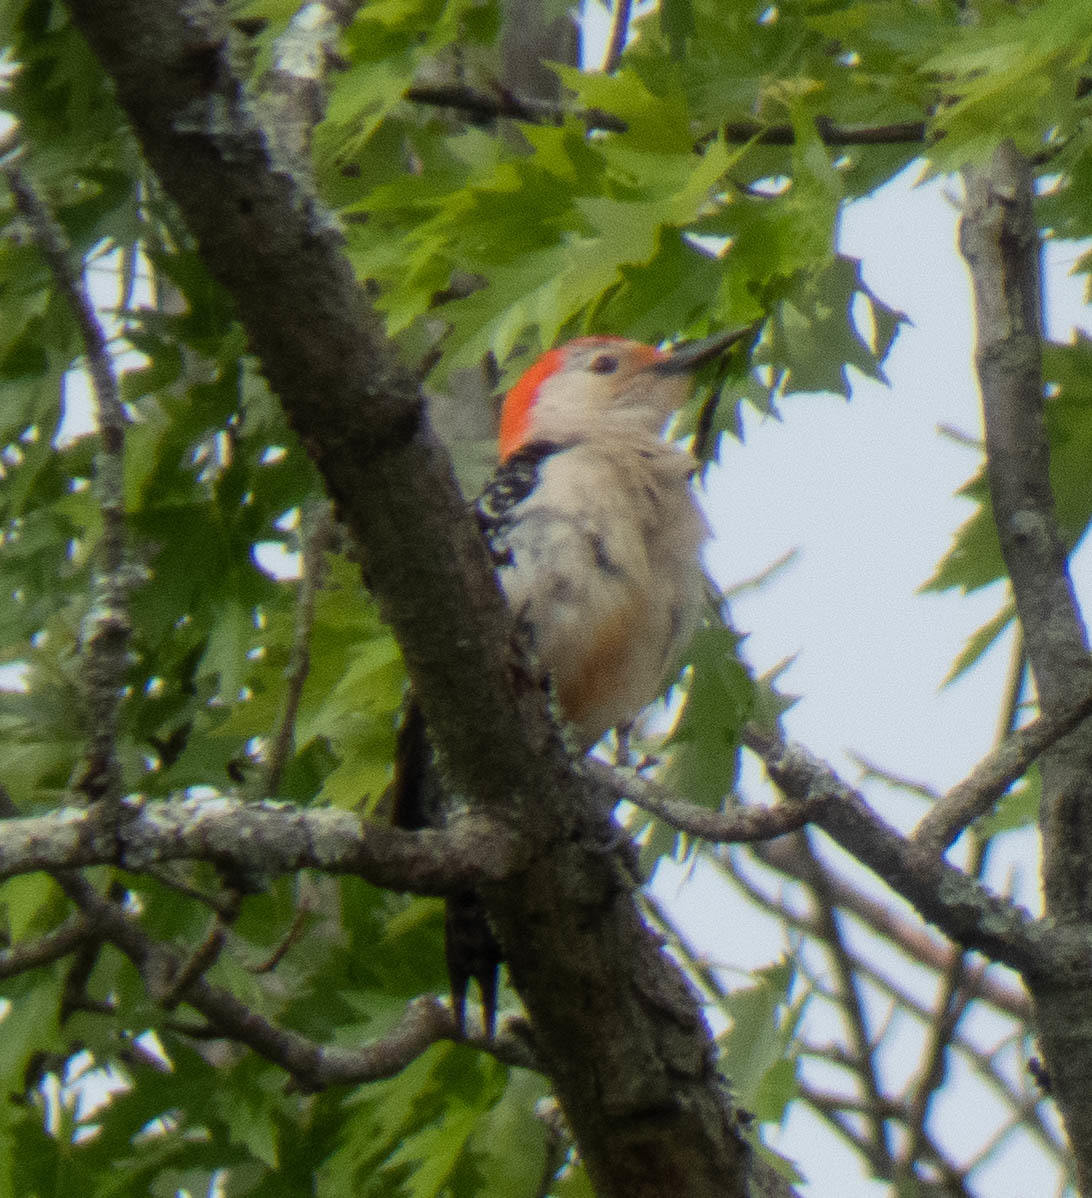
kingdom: Animalia
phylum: Chordata
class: Aves
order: Piciformes
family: Picidae
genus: Melanerpes
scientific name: Melanerpes carolinus
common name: Red-bellied woodpecker
